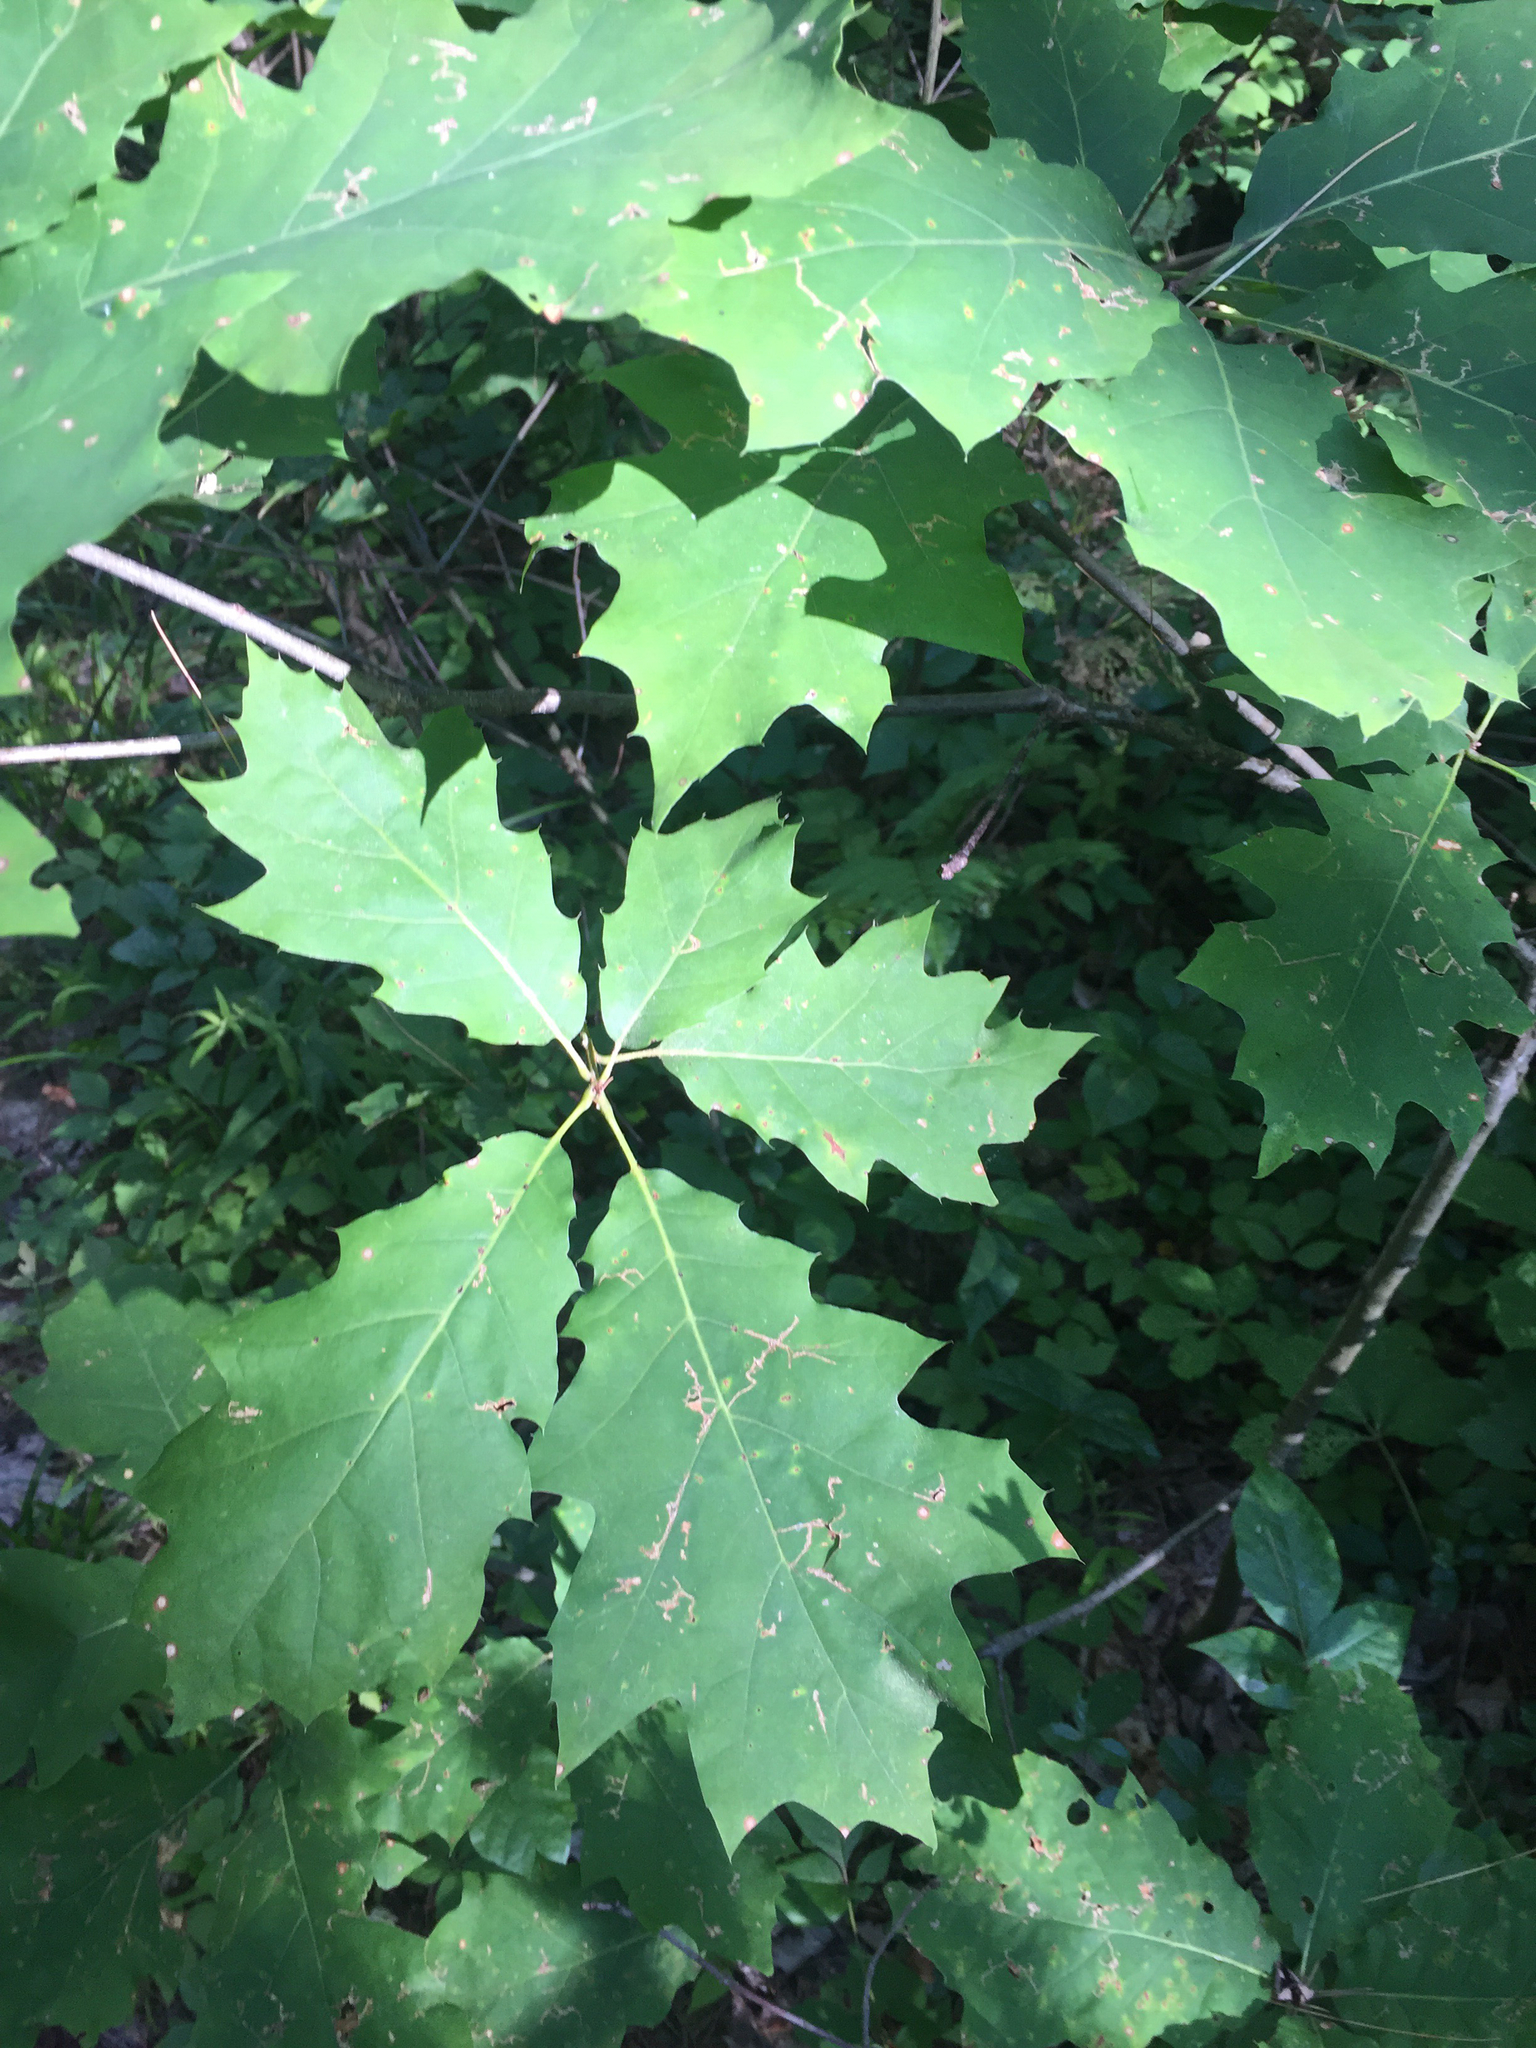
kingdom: Plantae
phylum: Tracheophyta
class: Magnoliopsida
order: Fagales
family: Fagaceae
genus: Quercus
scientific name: Quercus rubra
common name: Red oak
